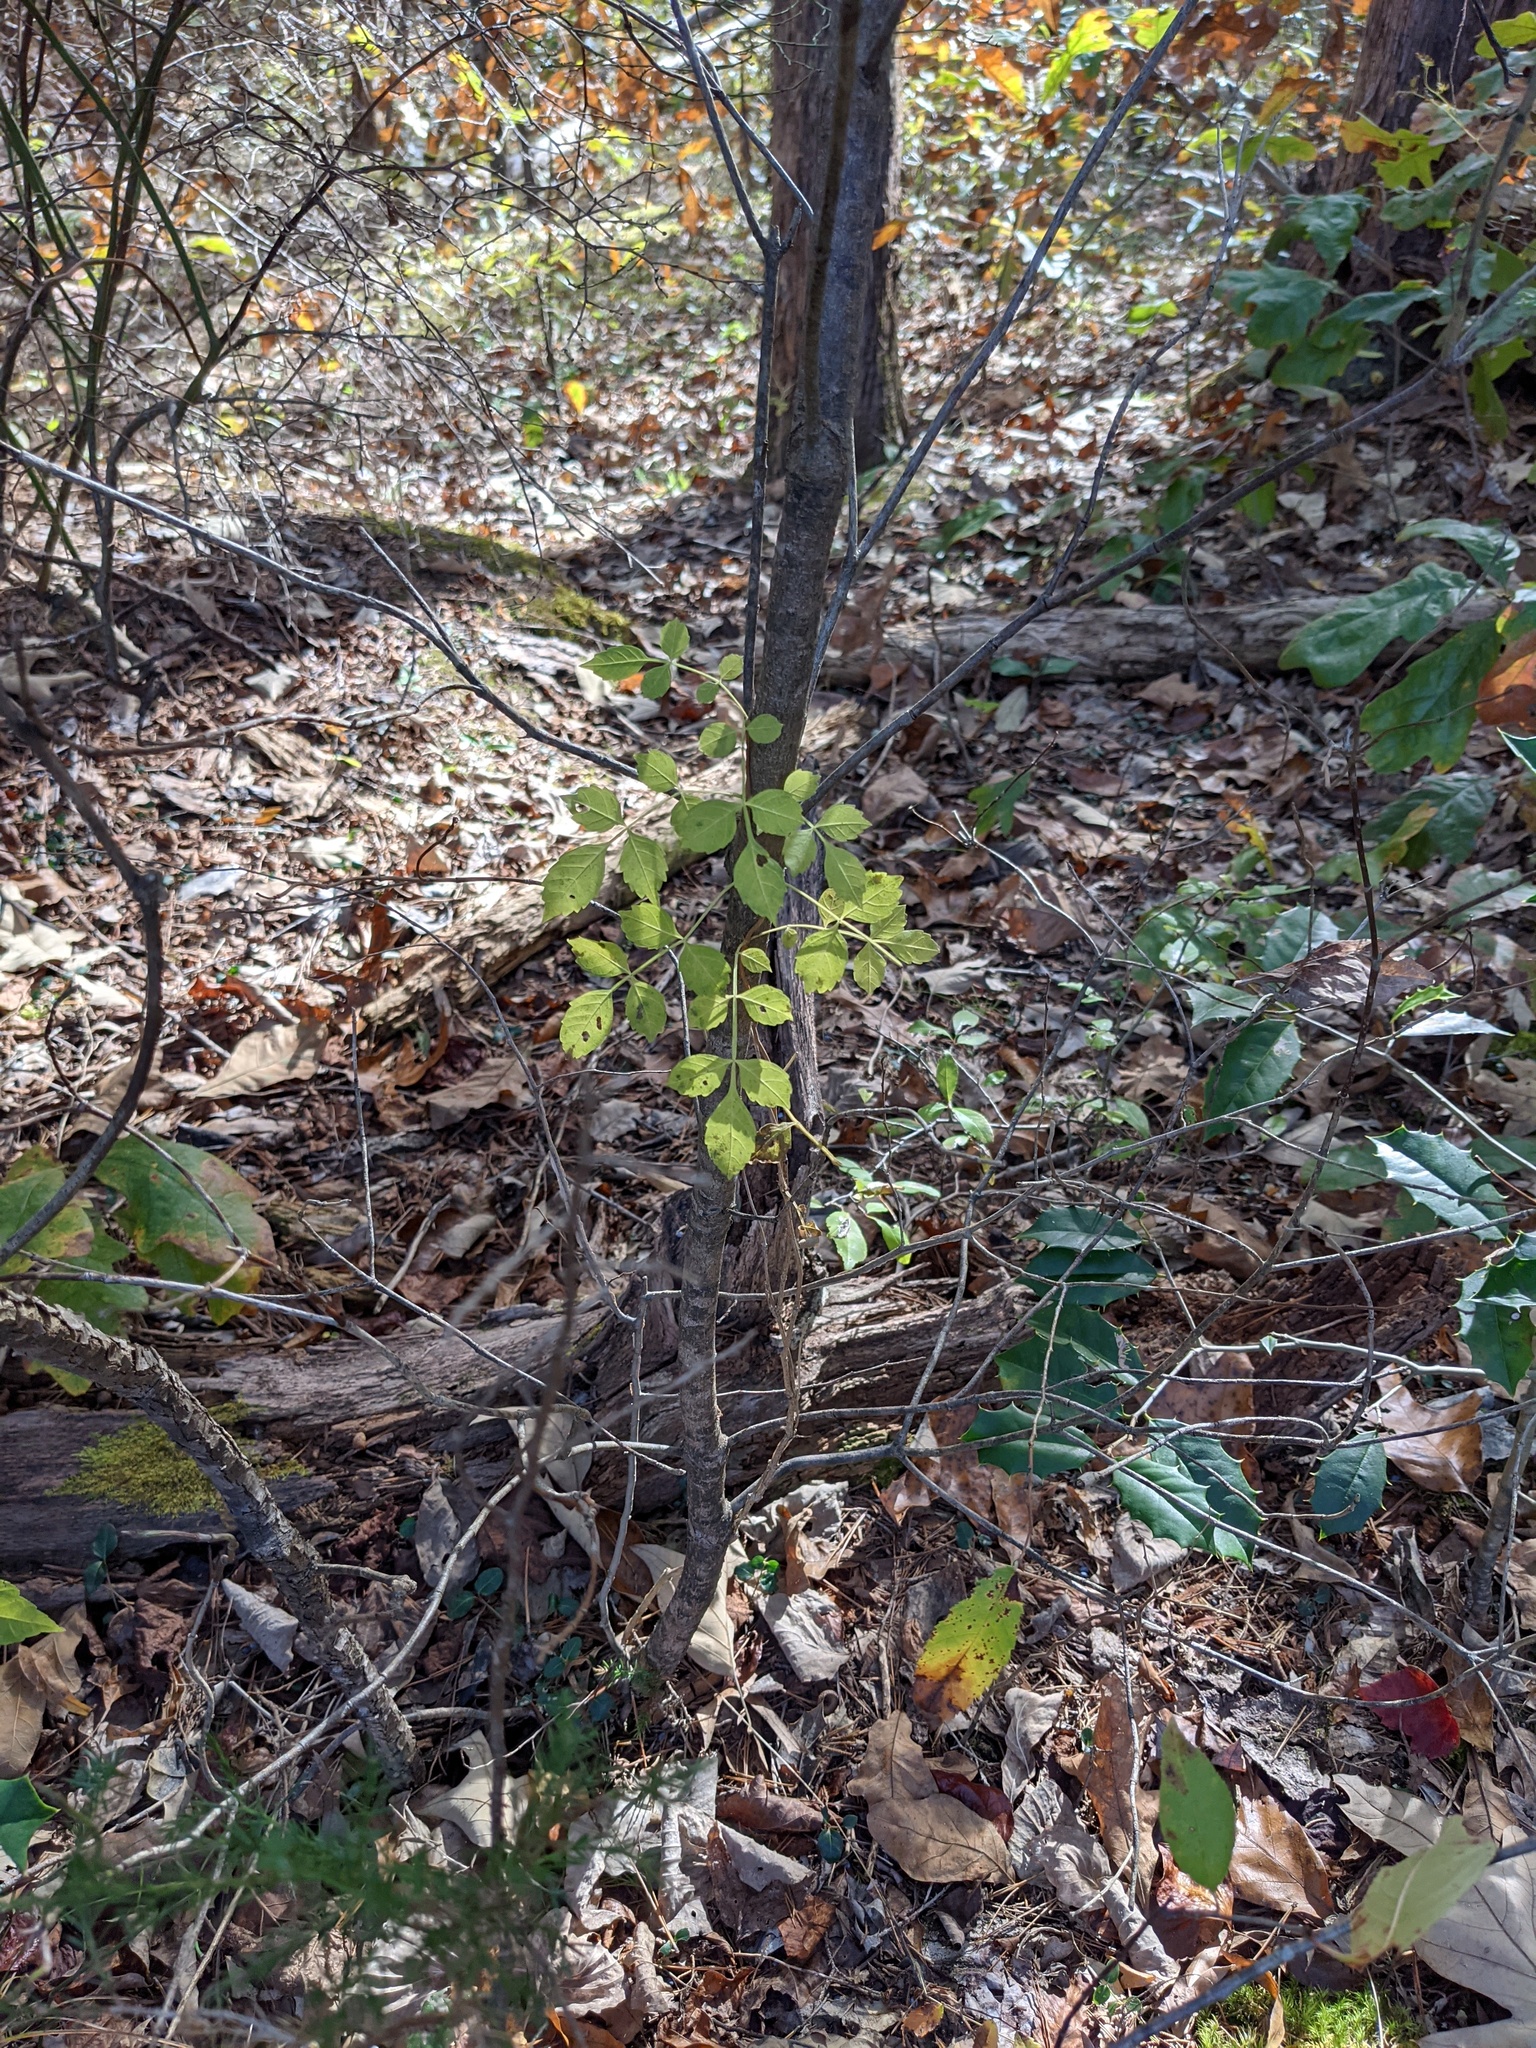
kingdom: Plantae
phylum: Tracheophyta
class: Magnoliopsida
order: Lamiales
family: Bignoniaceae
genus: Campsis
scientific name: Campsis radicans
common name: Trumpet-creeper
